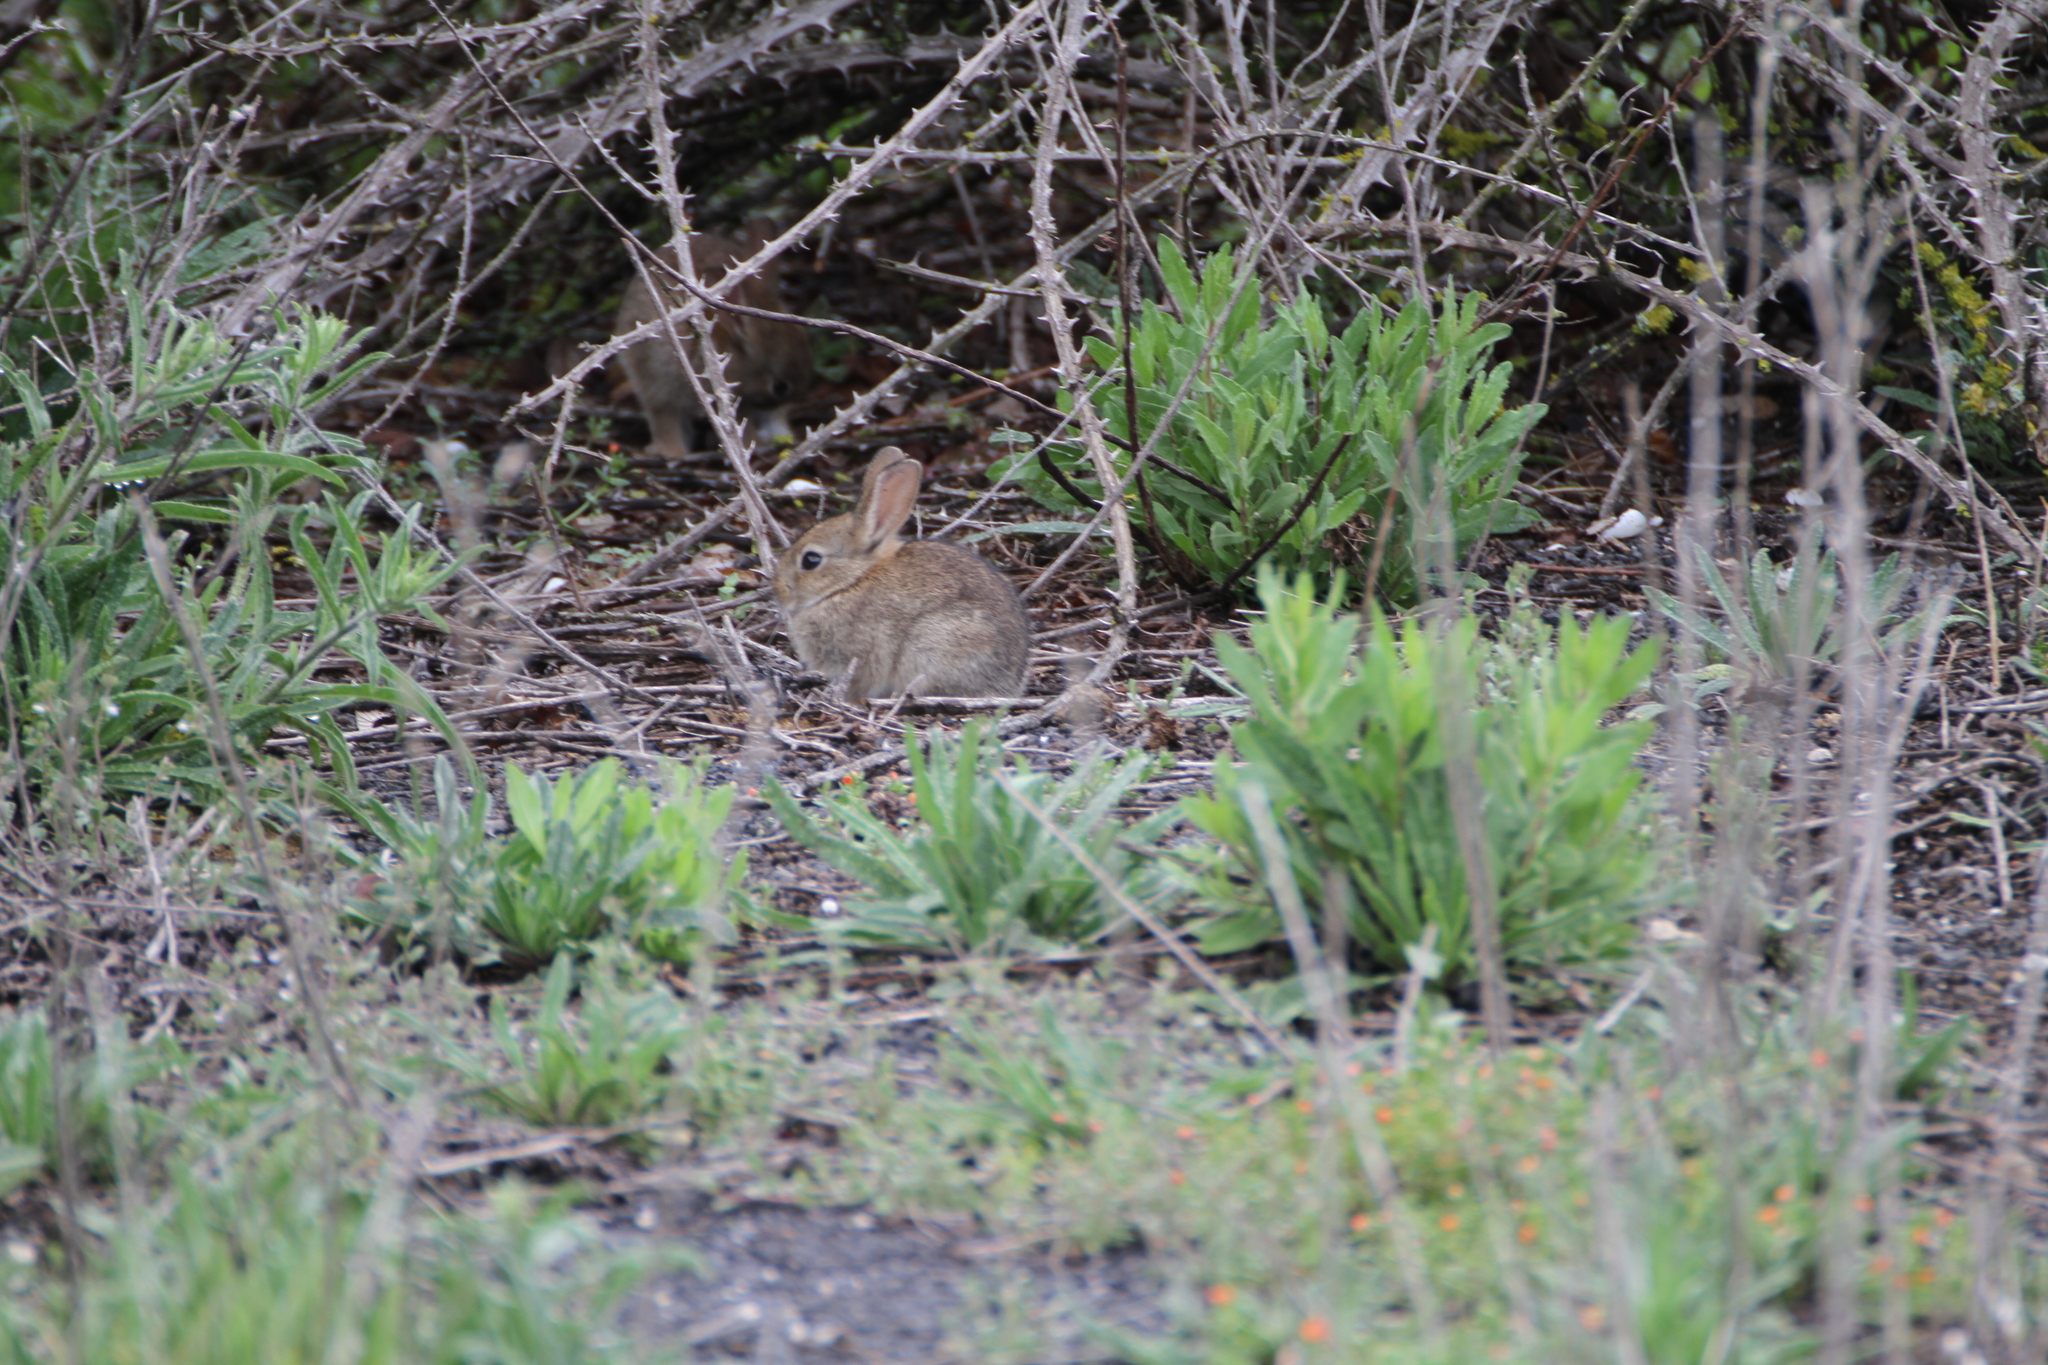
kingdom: Animalia
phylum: Chordata
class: Mammalia
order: Lagomorpha
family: Leporidae
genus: Oryctolagus
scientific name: Oryctolagus cuniculus
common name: European rabbit
